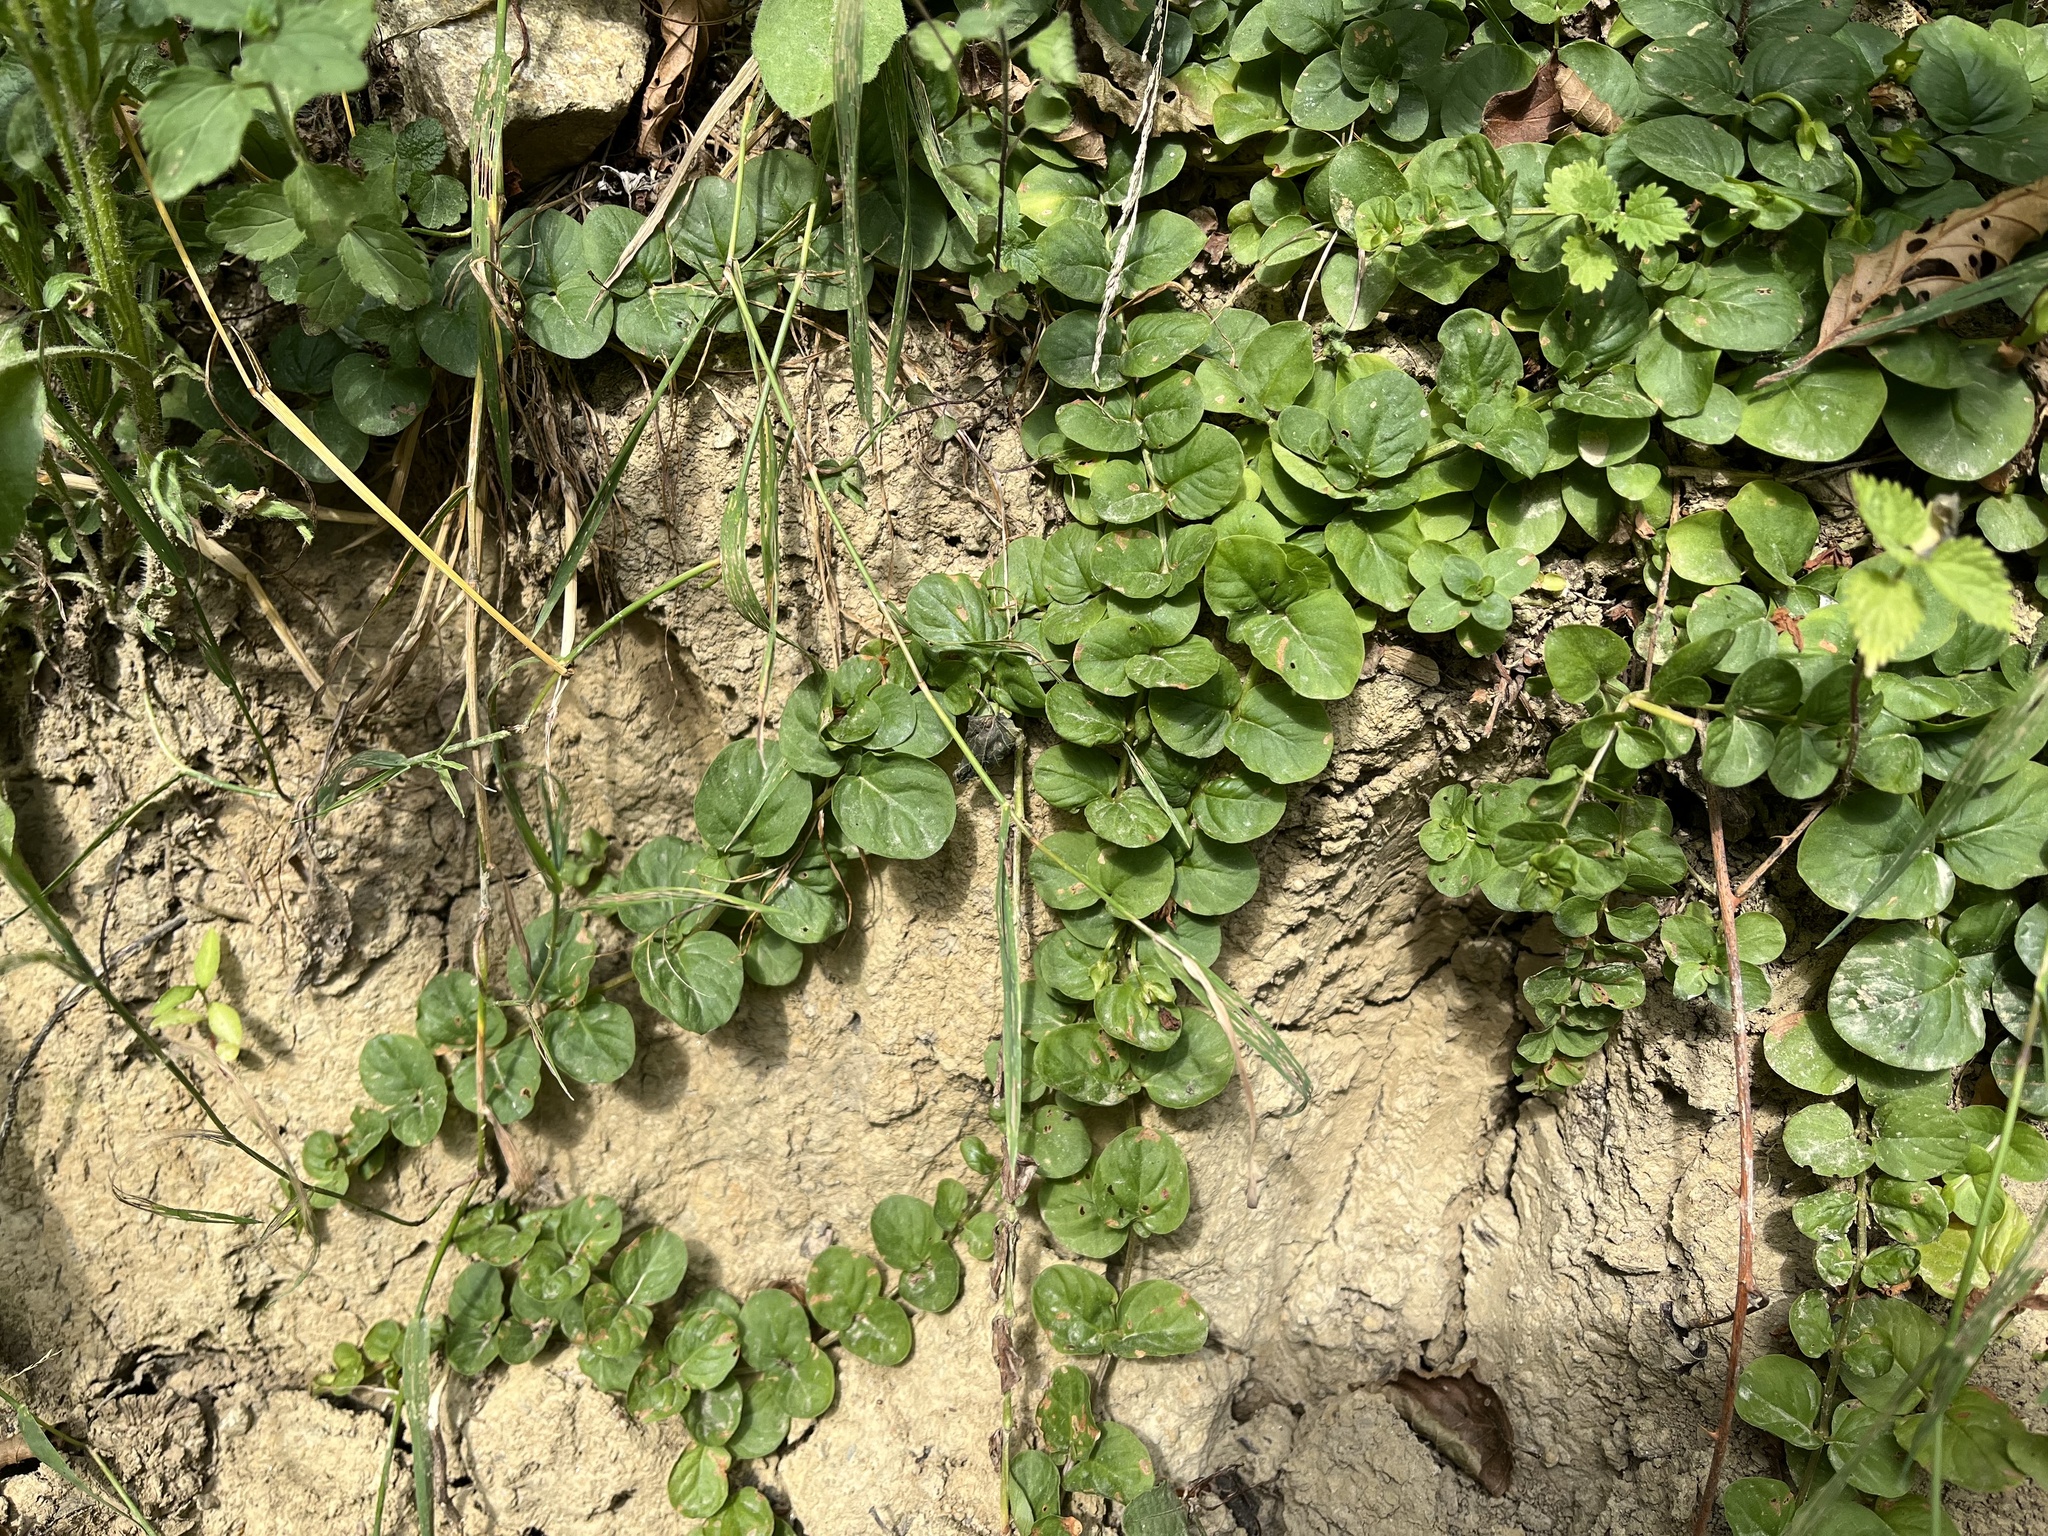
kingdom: Plantae
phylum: Tracheophyta
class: Magnoliopsida
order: Ericales
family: Primulaceae
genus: Lysimachia
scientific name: Lysimachia nummularia
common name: Moneywort
